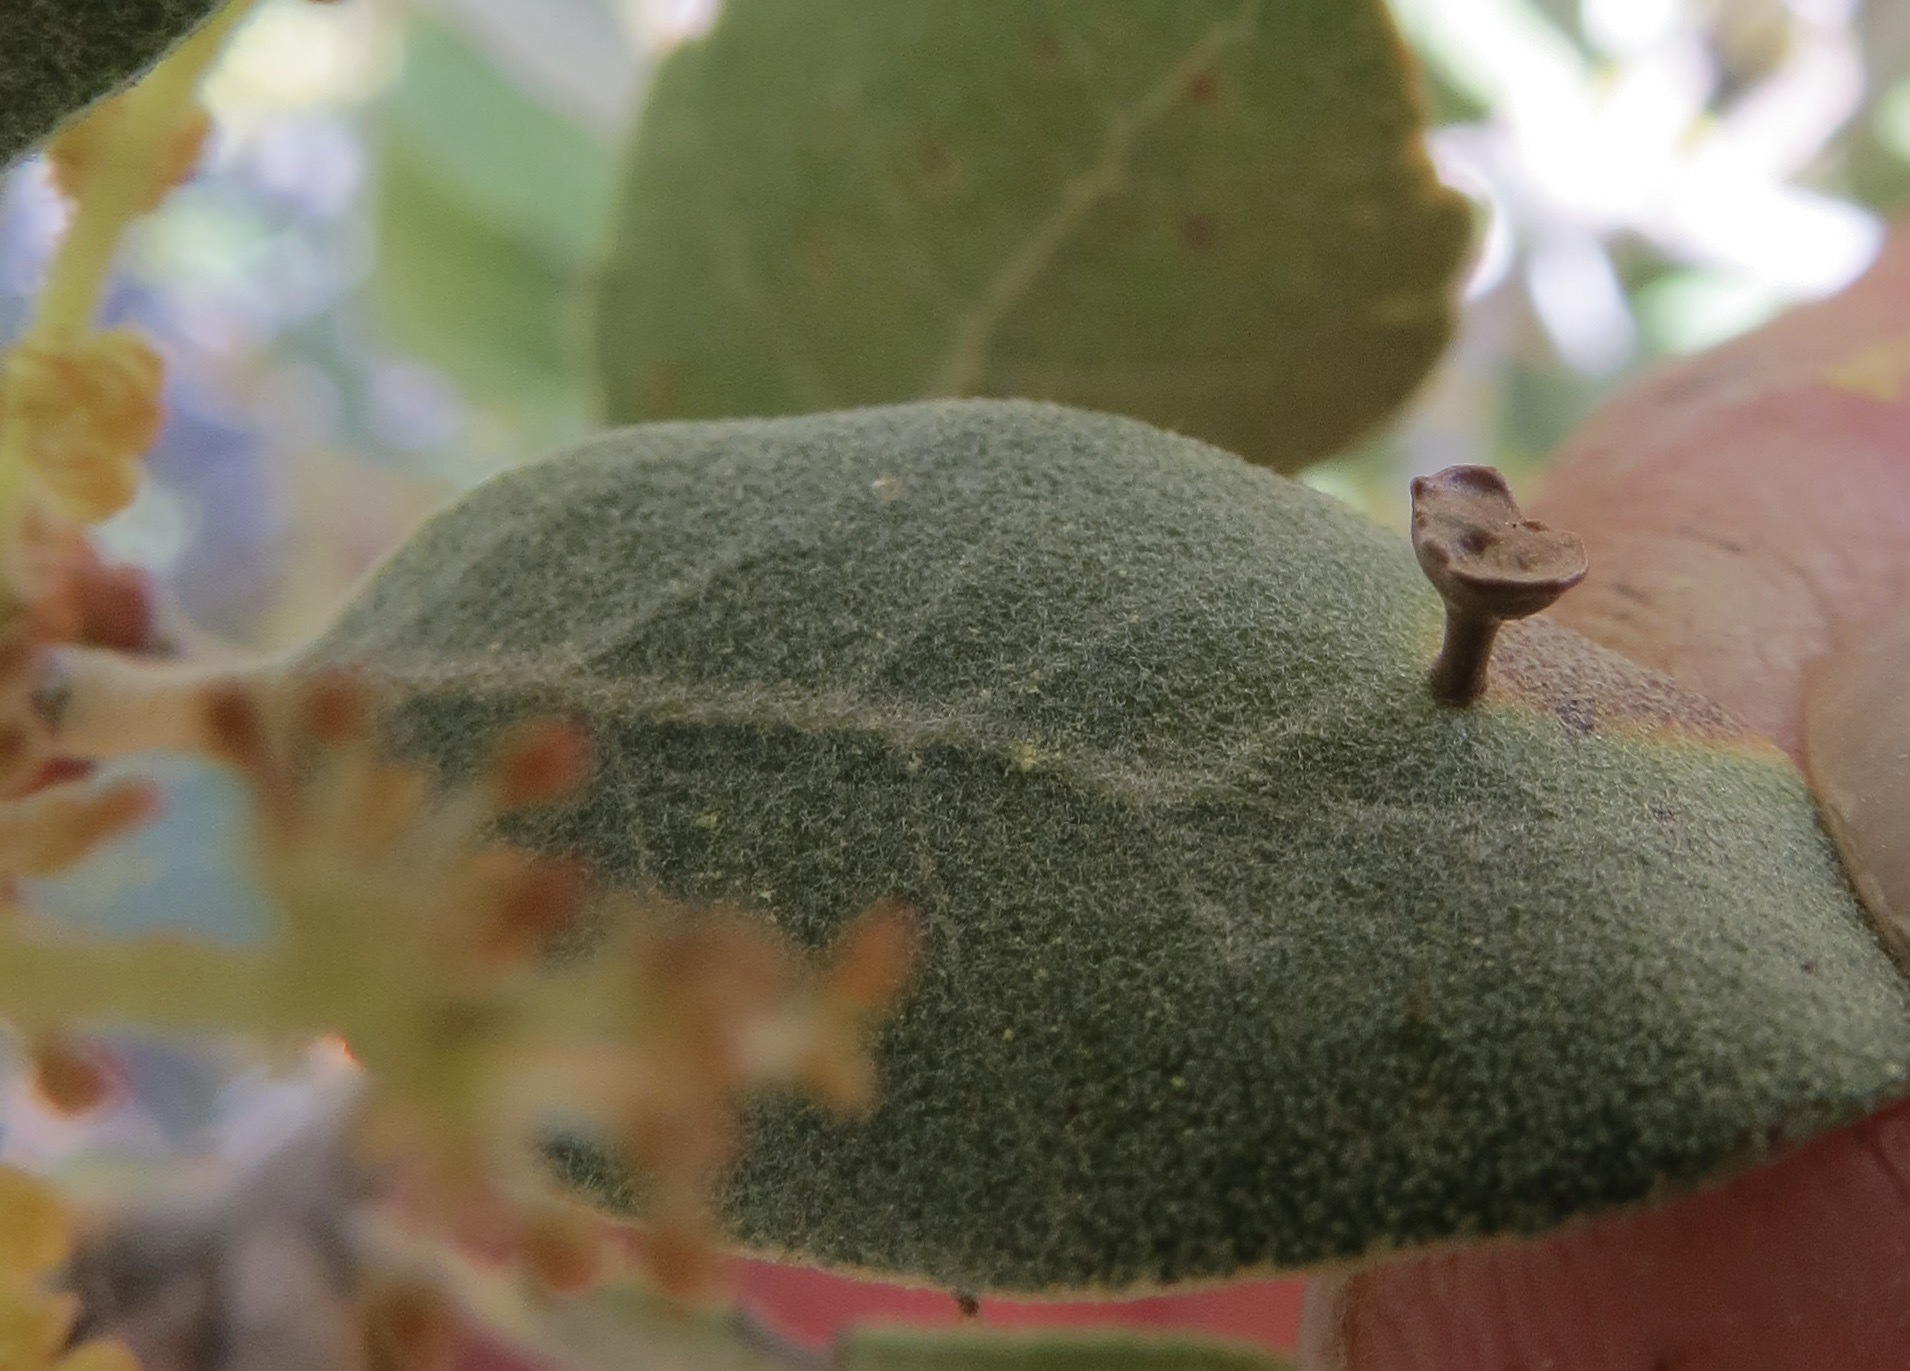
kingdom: Animalia
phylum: Arthropoda
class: Insecta
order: Hymenoptera
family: Cynipidae
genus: Andricus
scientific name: Andricus
